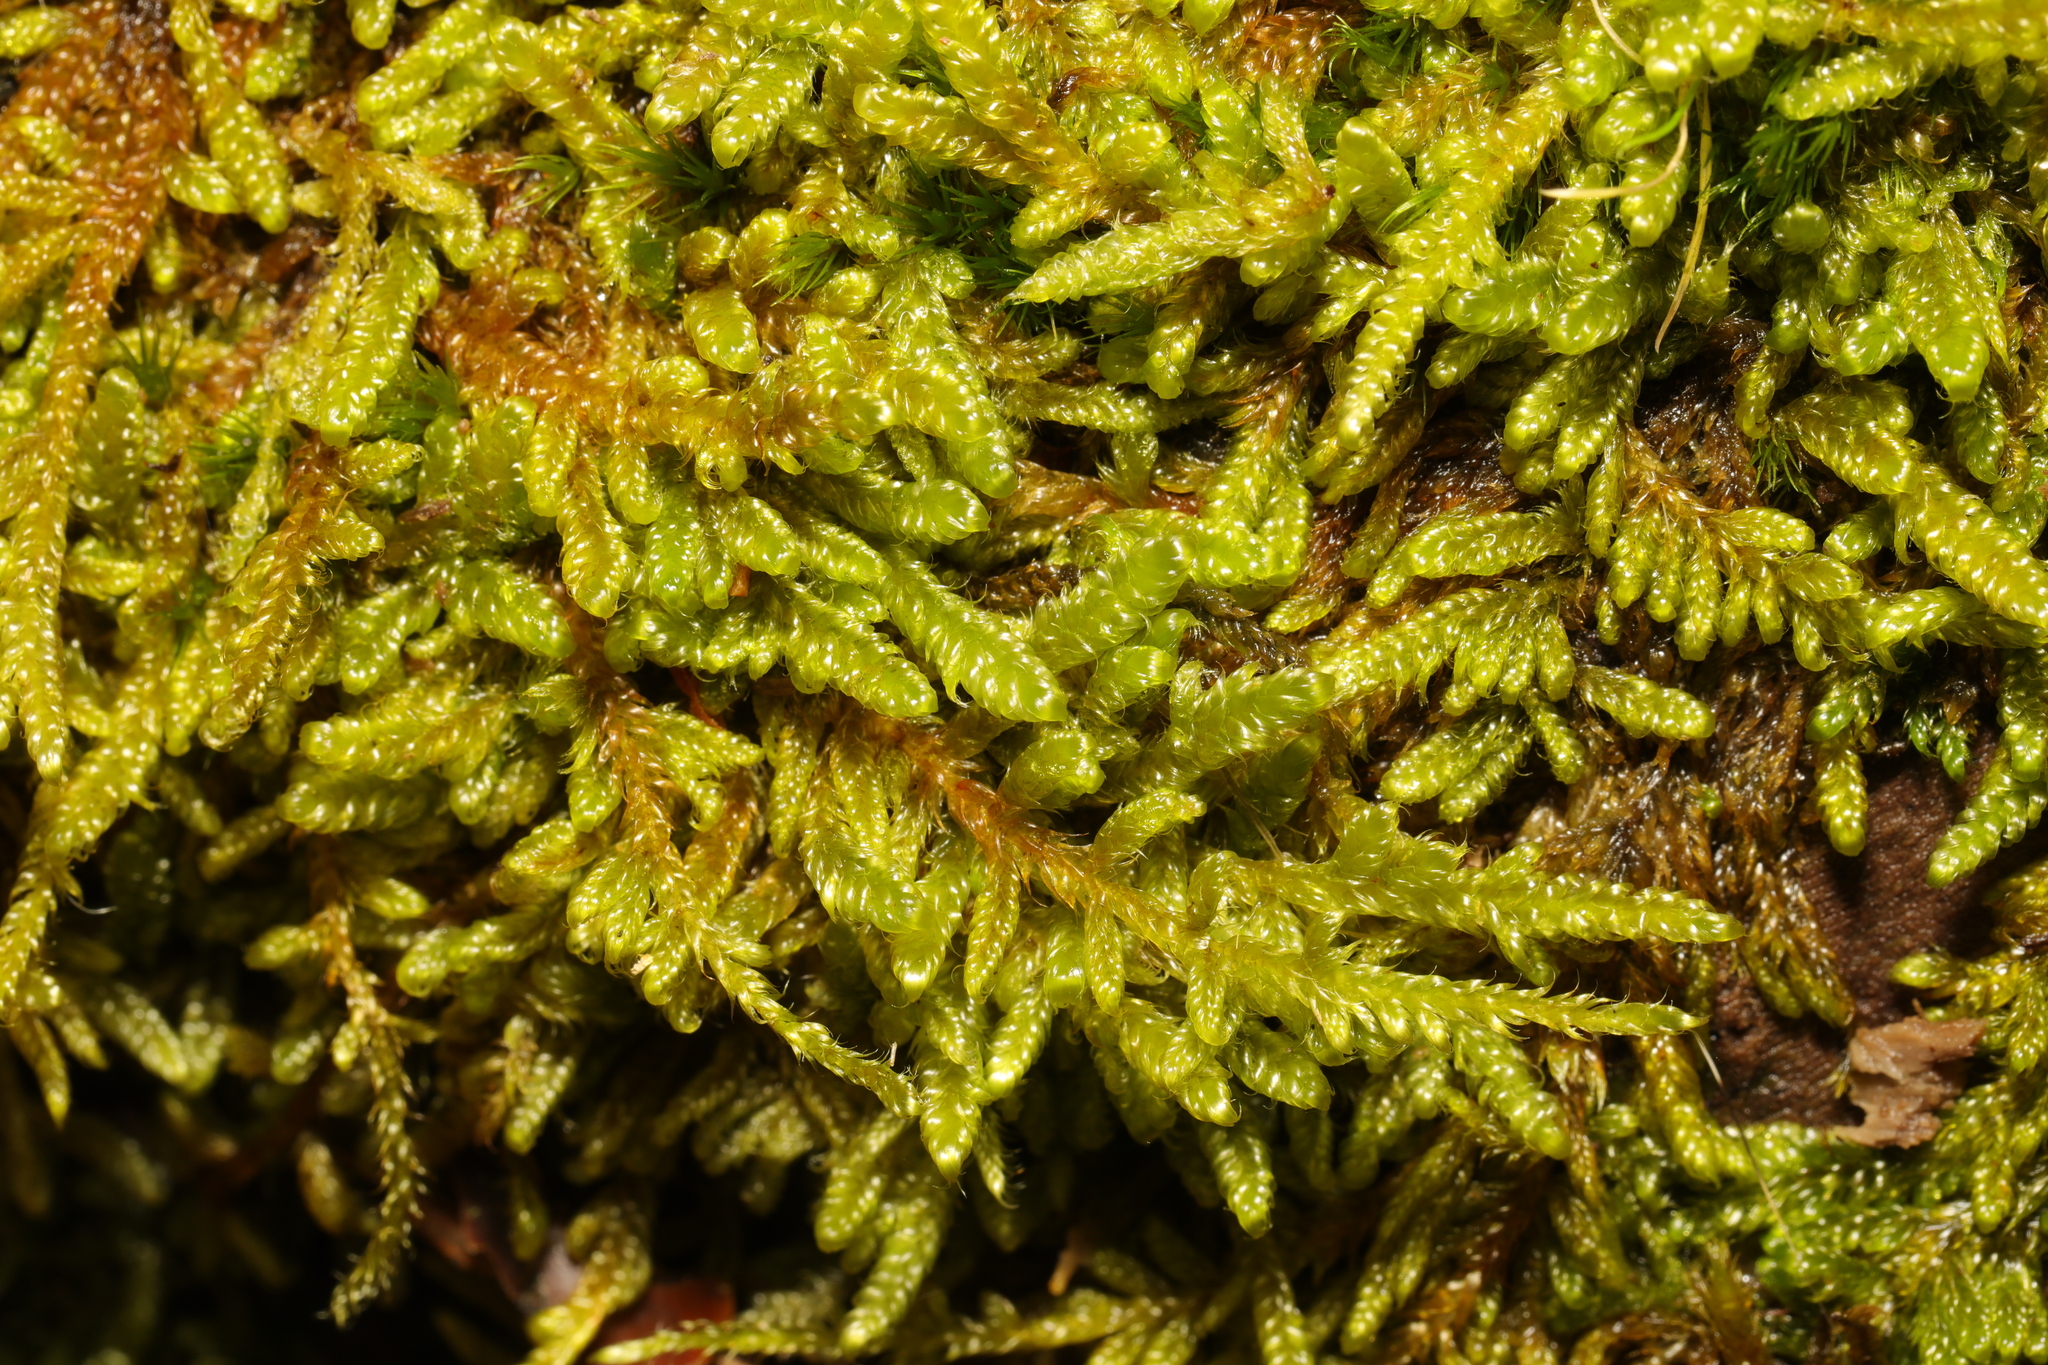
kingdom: Plantae
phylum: Bryophyta
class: Bryopsida
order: Hypnales
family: Hypnaceae
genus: Hypnum
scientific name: Hypnum cupressiforme
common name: Cypress-leaved plait-moss
